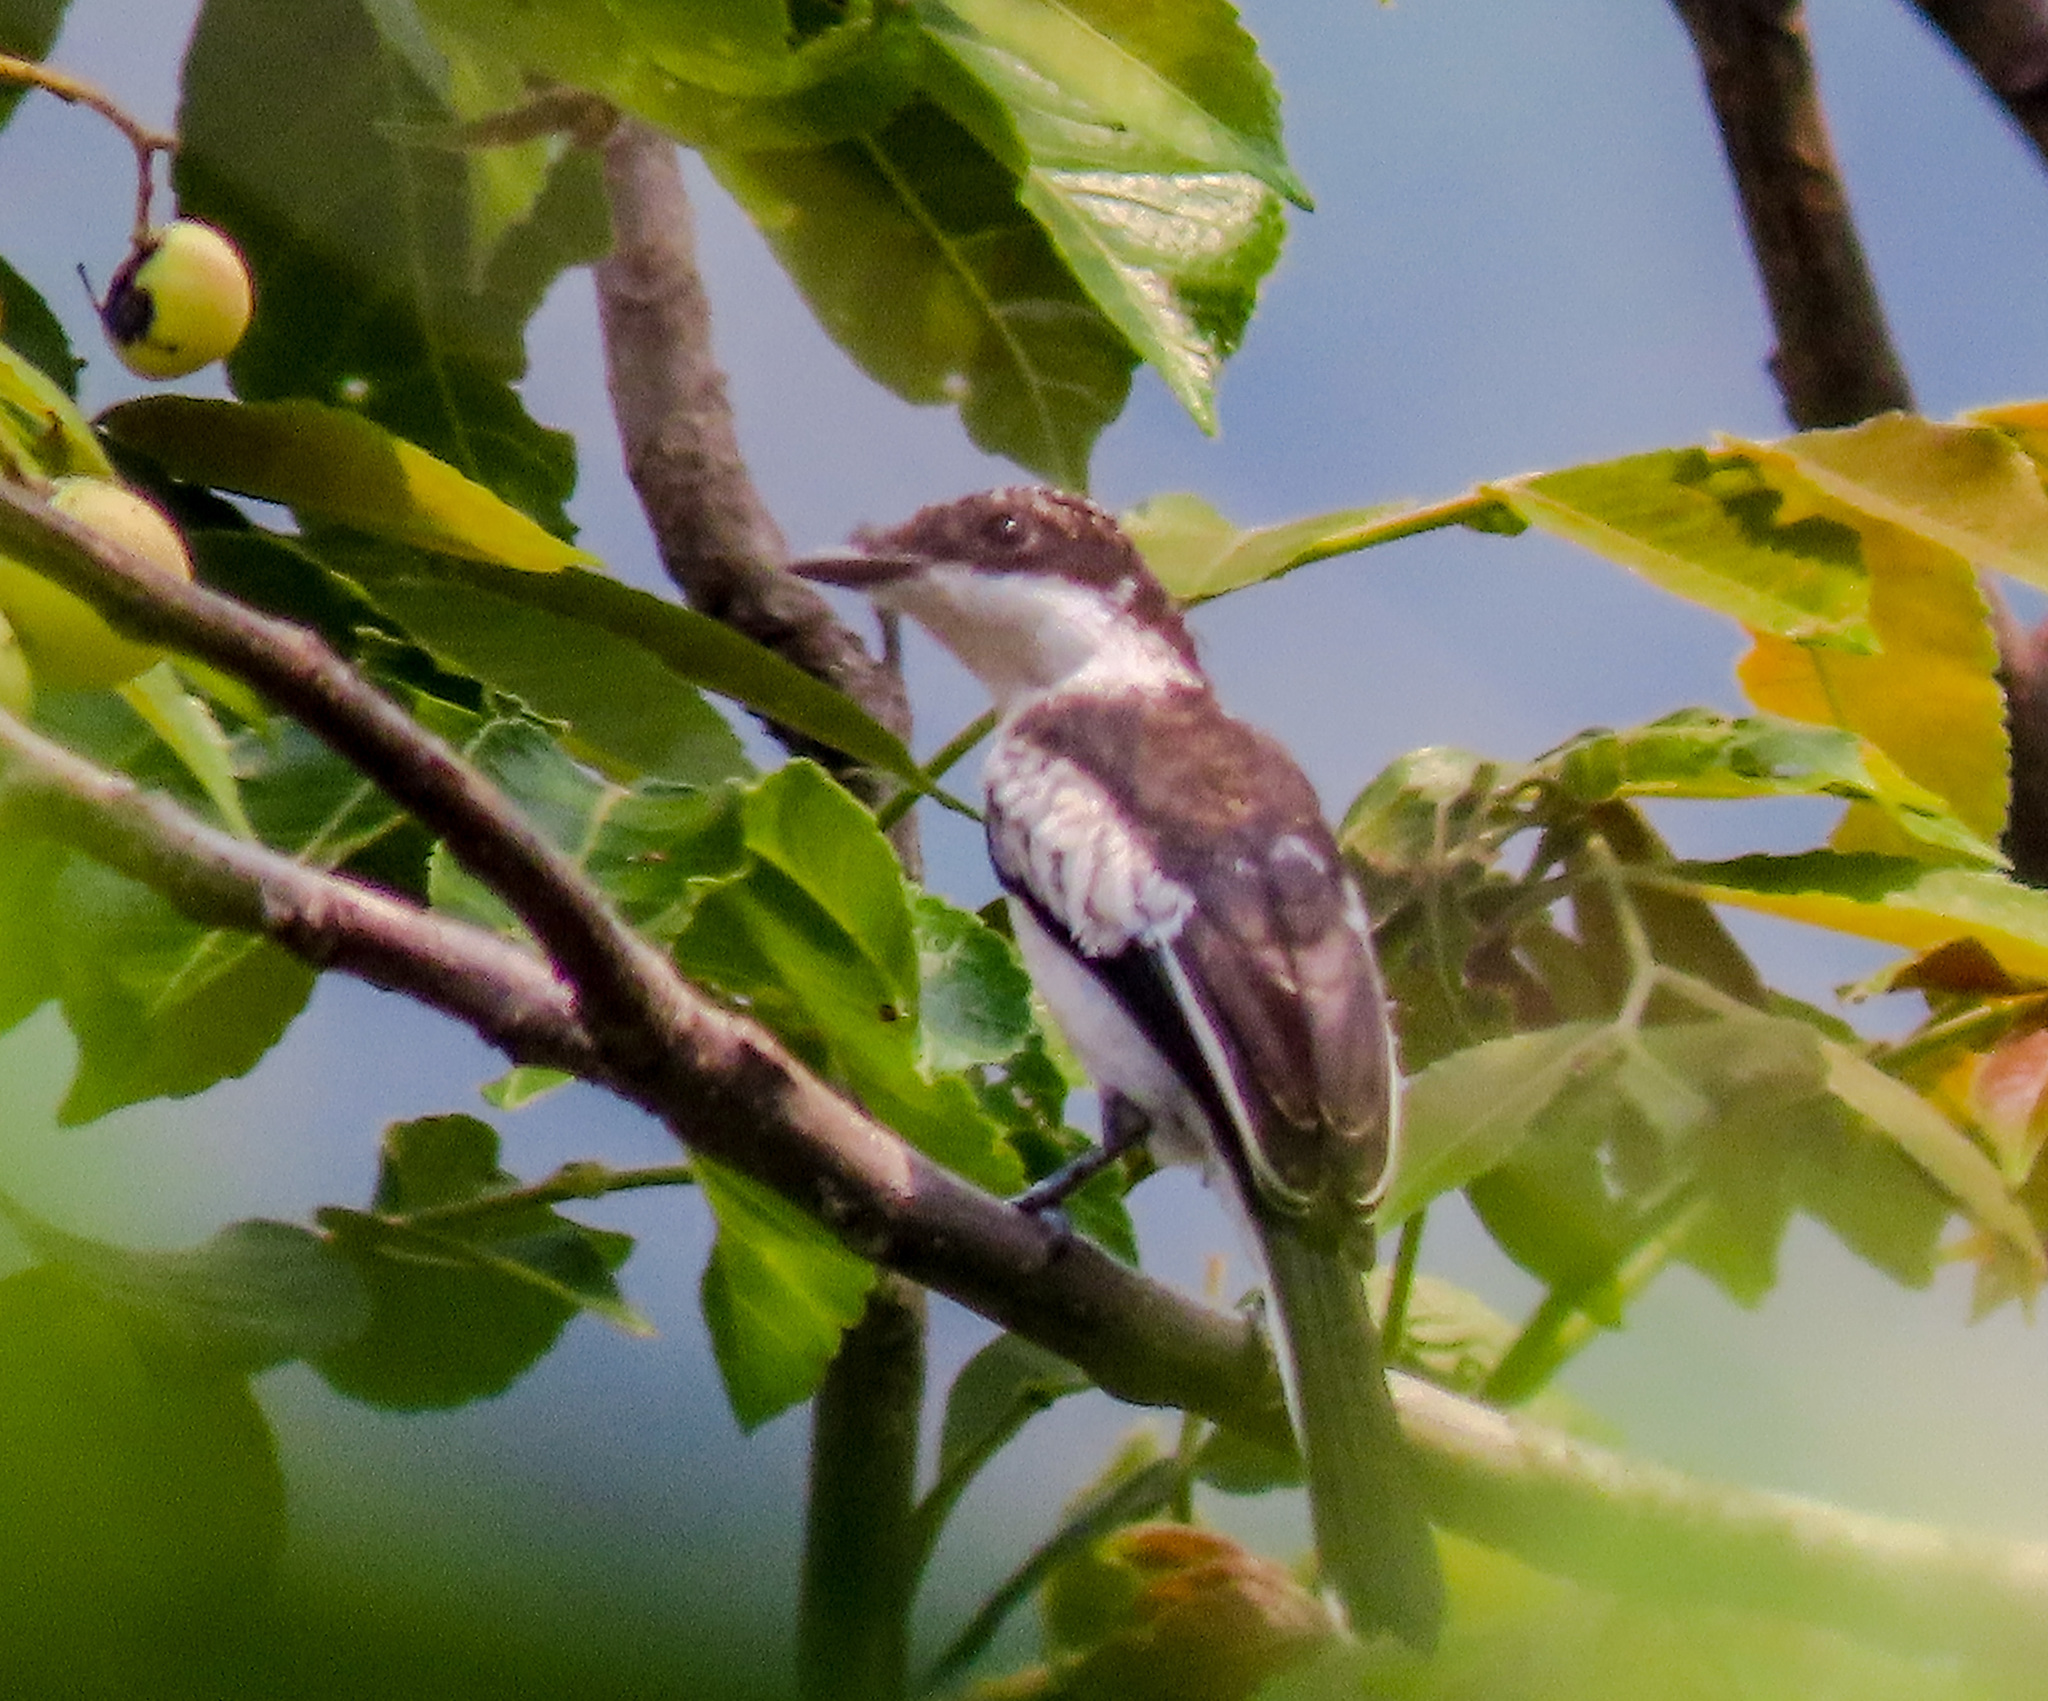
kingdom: Animalia
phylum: Chordata
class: Aves
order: Passeriformes
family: Tephrodornithidae
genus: Hemipus
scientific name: Hemipus picatus
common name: Bar-winged flycatcher-shrike
